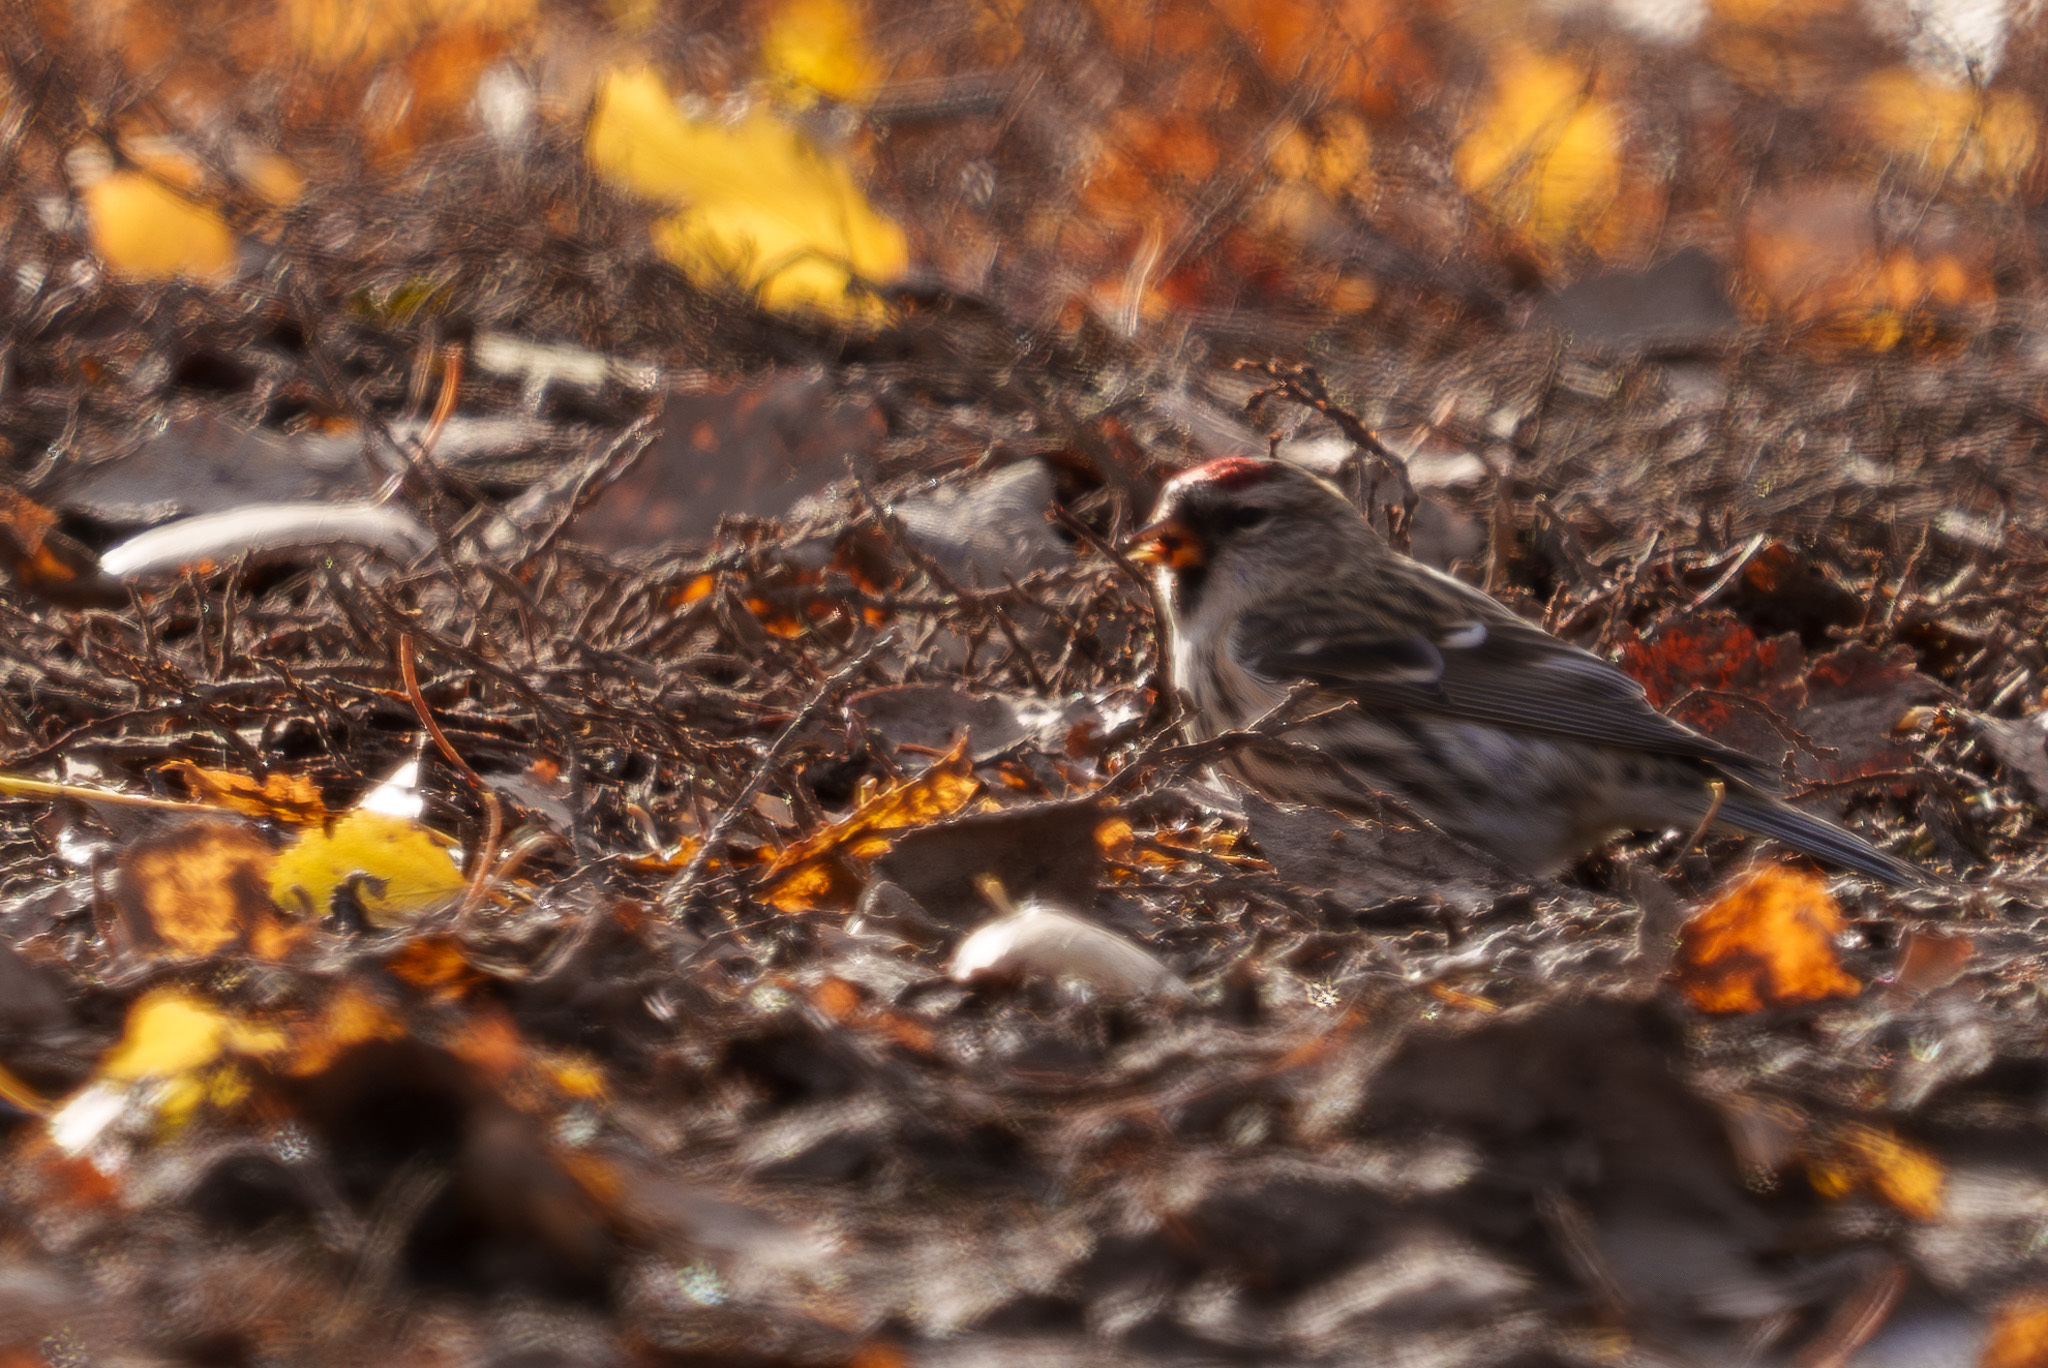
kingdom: Animalia
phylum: Chordata
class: Aves
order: Passeriformes
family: Fringillidae
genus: Acanthis
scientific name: Acanthis flammea
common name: Common redpoll
